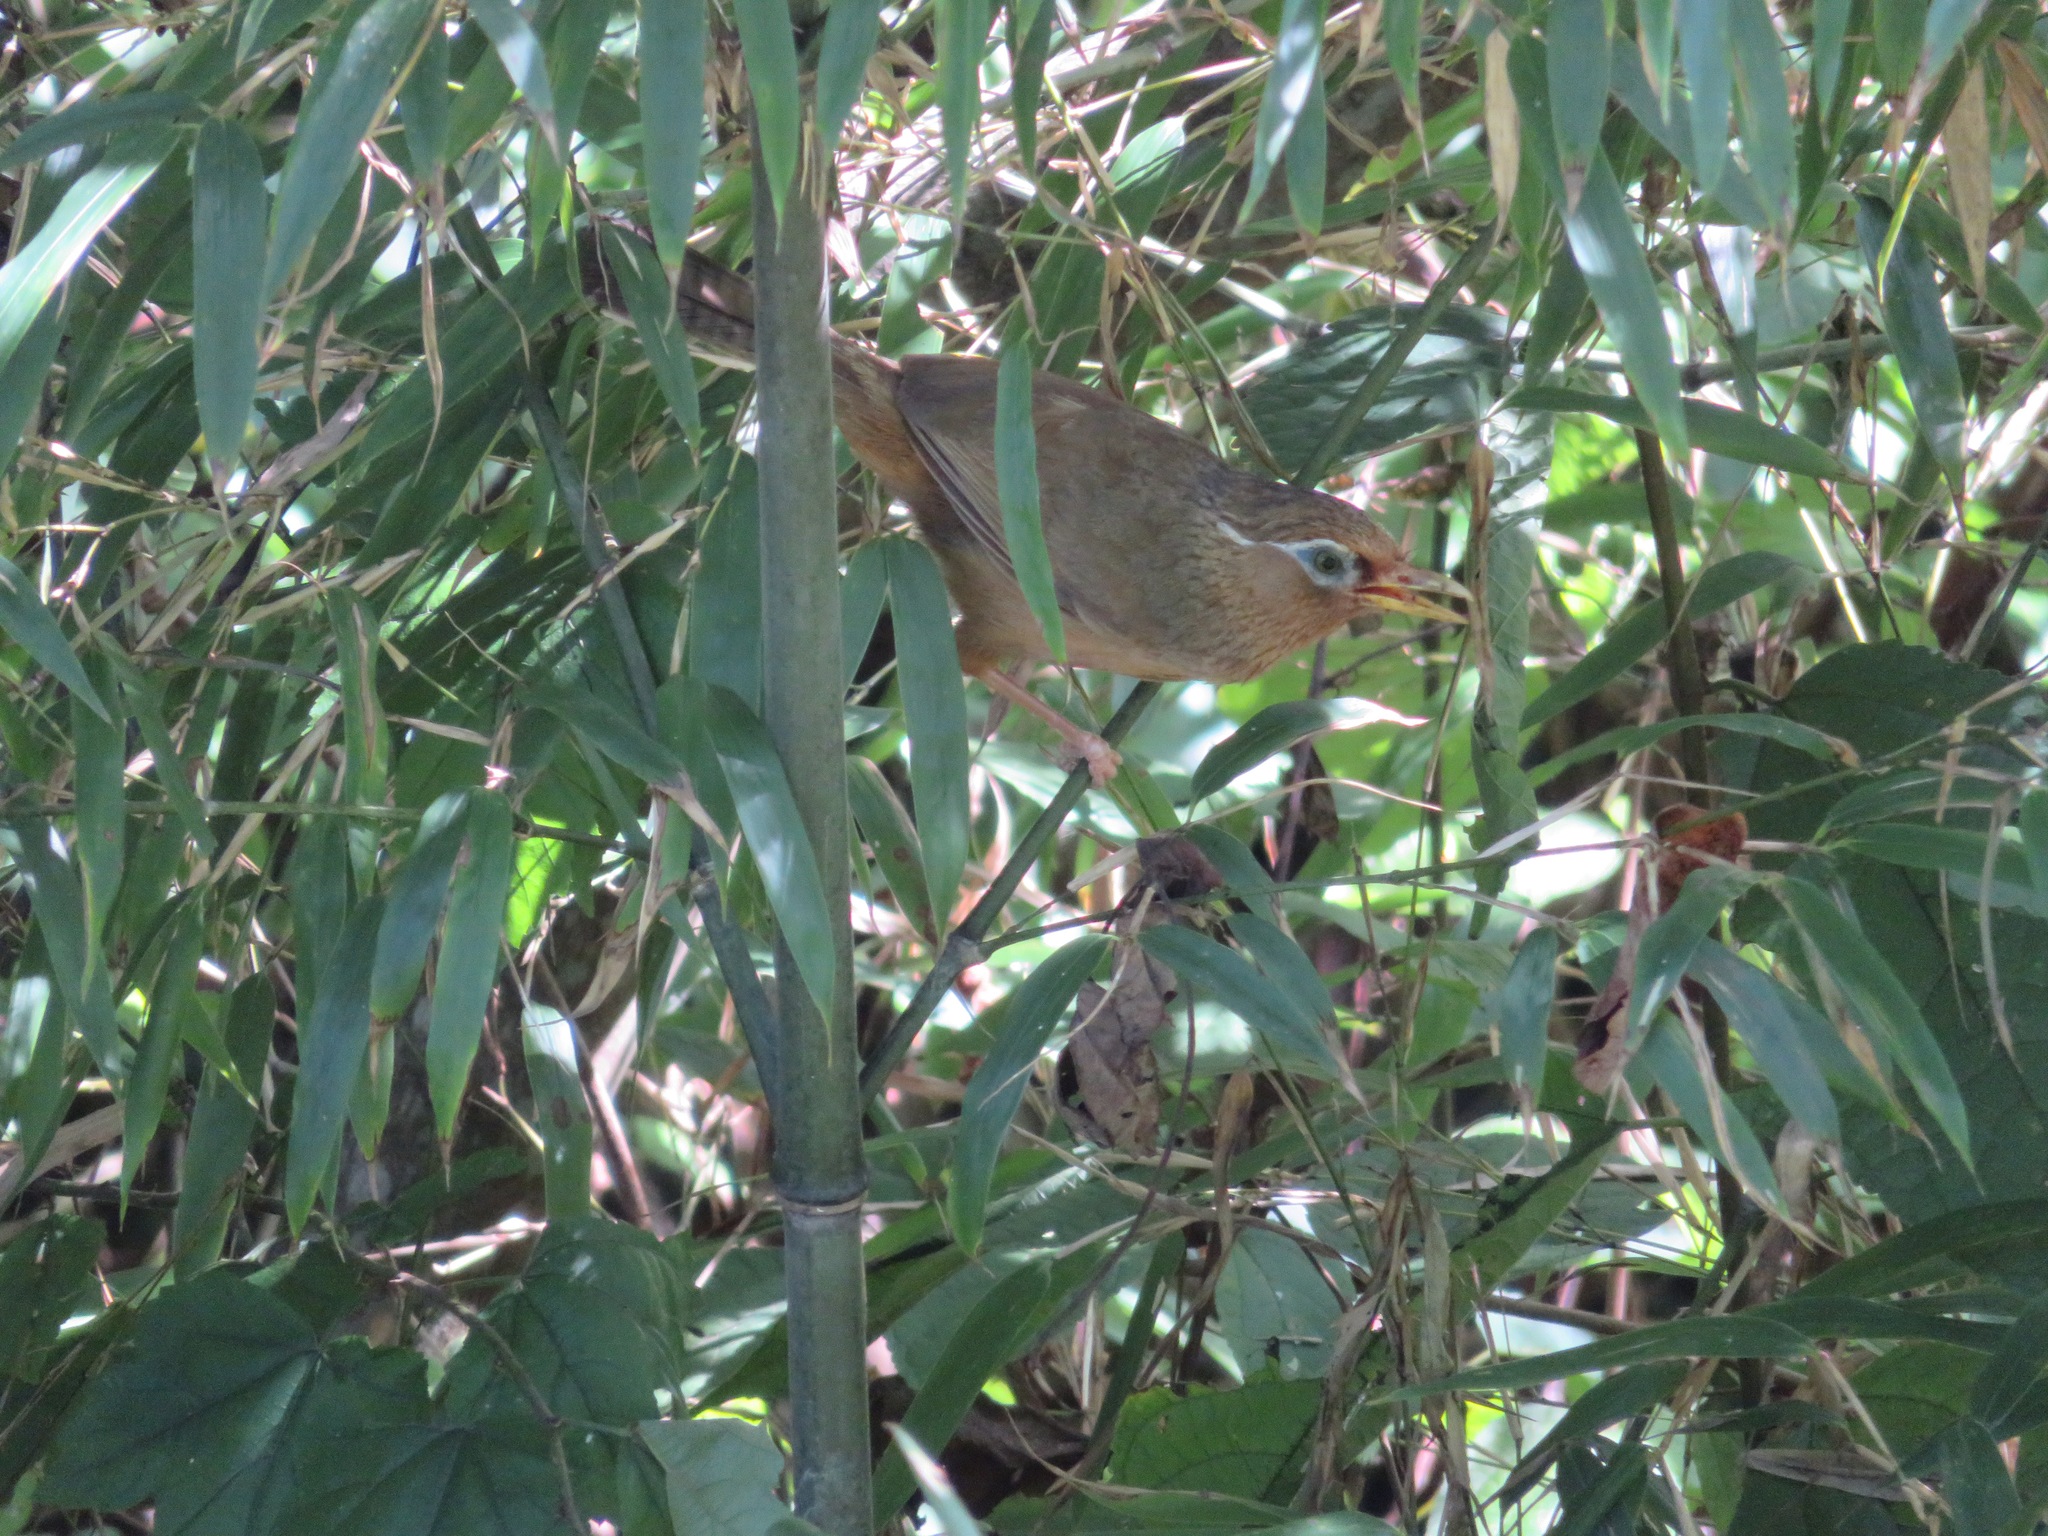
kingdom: Animalia
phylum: Chordata
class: Aves
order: Passeriformes
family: Leiothrichidae
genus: Garrulax
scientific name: Garrulax canorus
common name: Chinese hwamei
